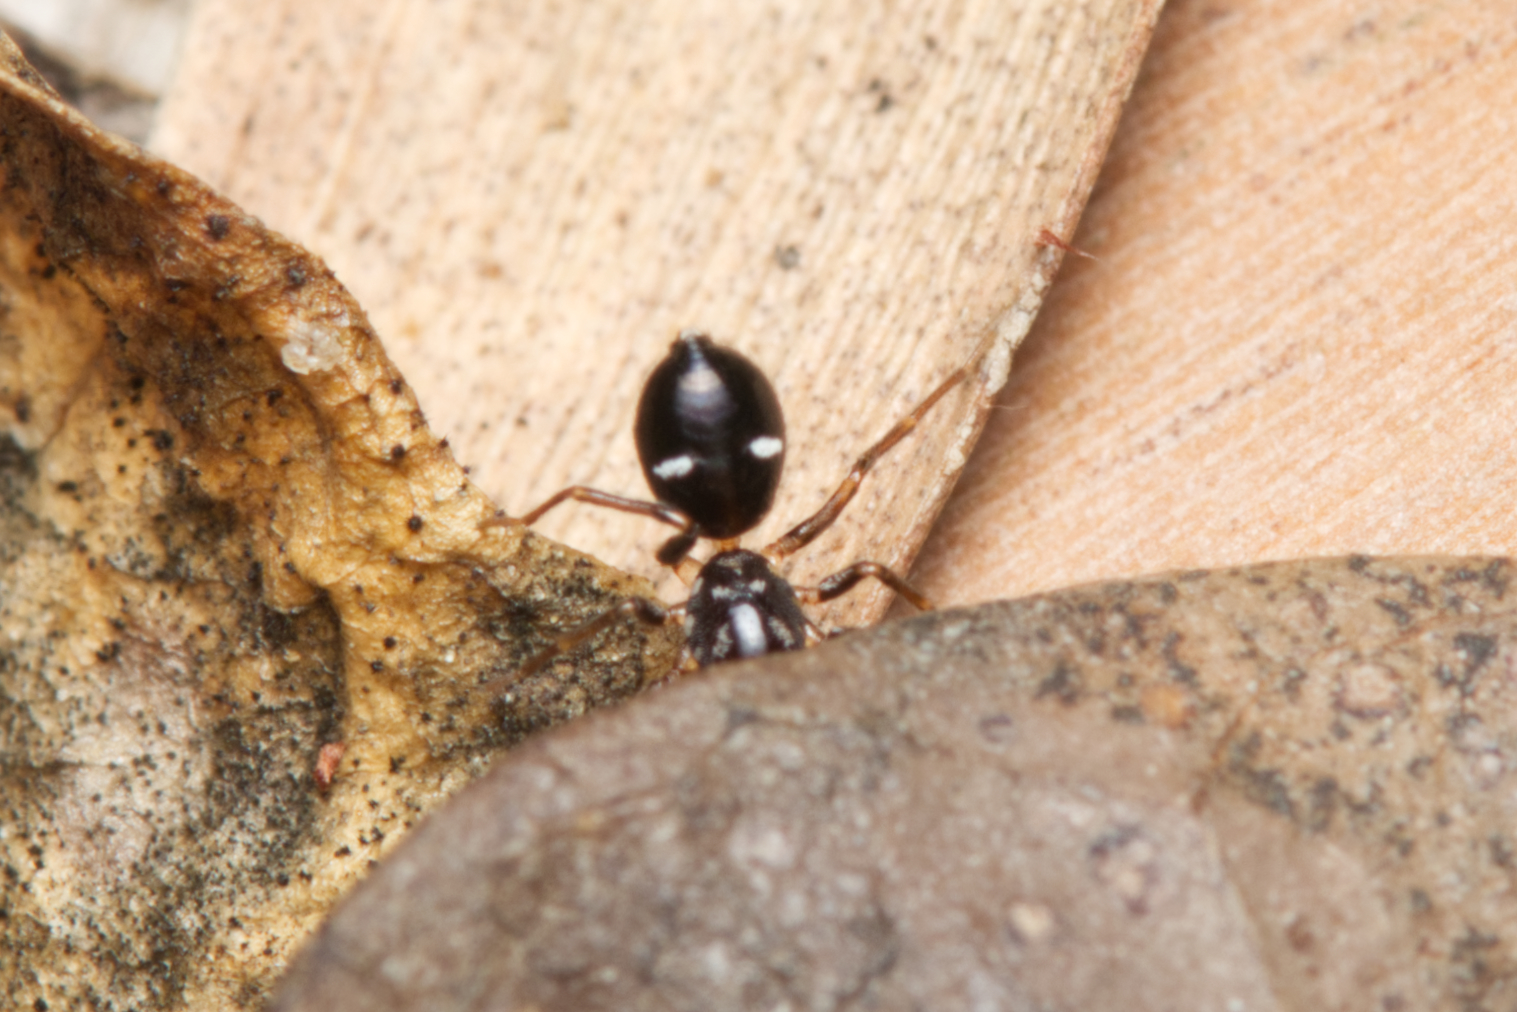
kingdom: Animalia
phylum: Arthropoda
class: Arachnida
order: Araneae
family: Lamponidae
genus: Queenvic
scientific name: Queenvic goanna
